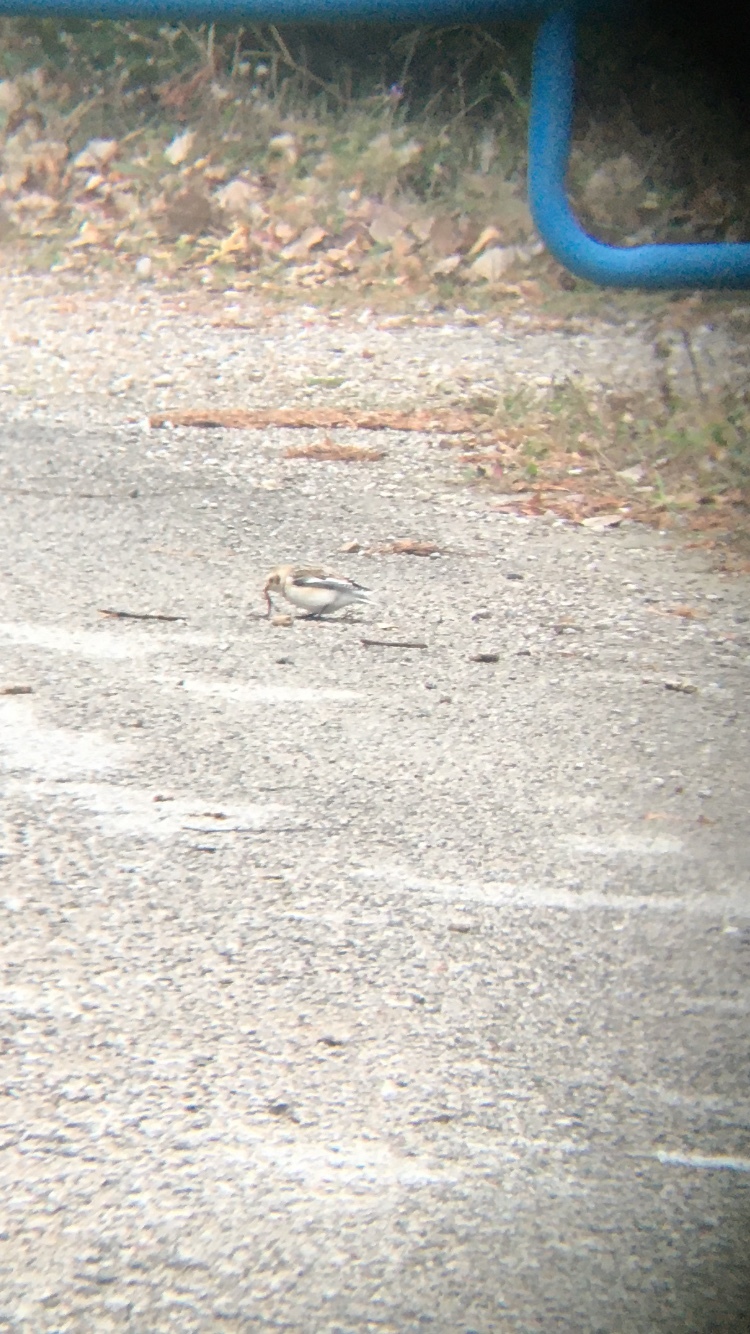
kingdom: Animalia
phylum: Chordata
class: Aves
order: Passeriformes
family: Calcariidae
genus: Plectrophenax
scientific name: Plectrophenax nivalis
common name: Snow bunting
